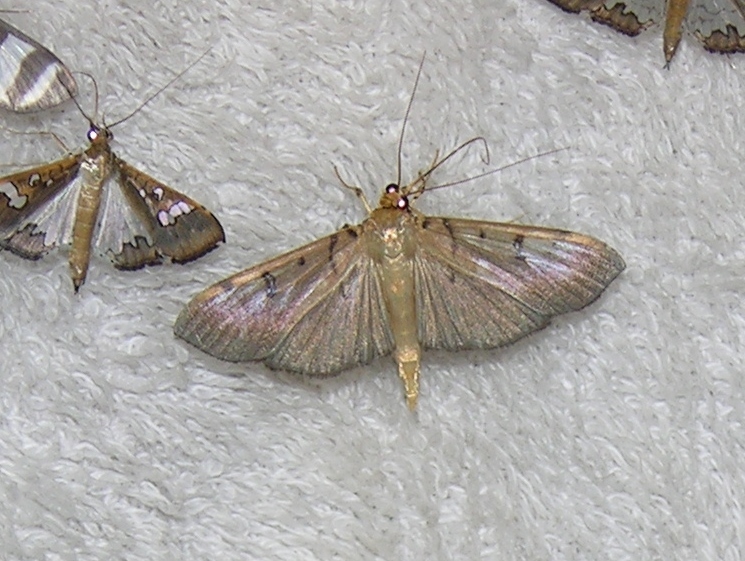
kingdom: Animalia
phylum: Arthropoda
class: Insecta
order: Lepidoptera
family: Crambidae
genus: Syllepte
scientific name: Syllepte glebalis
